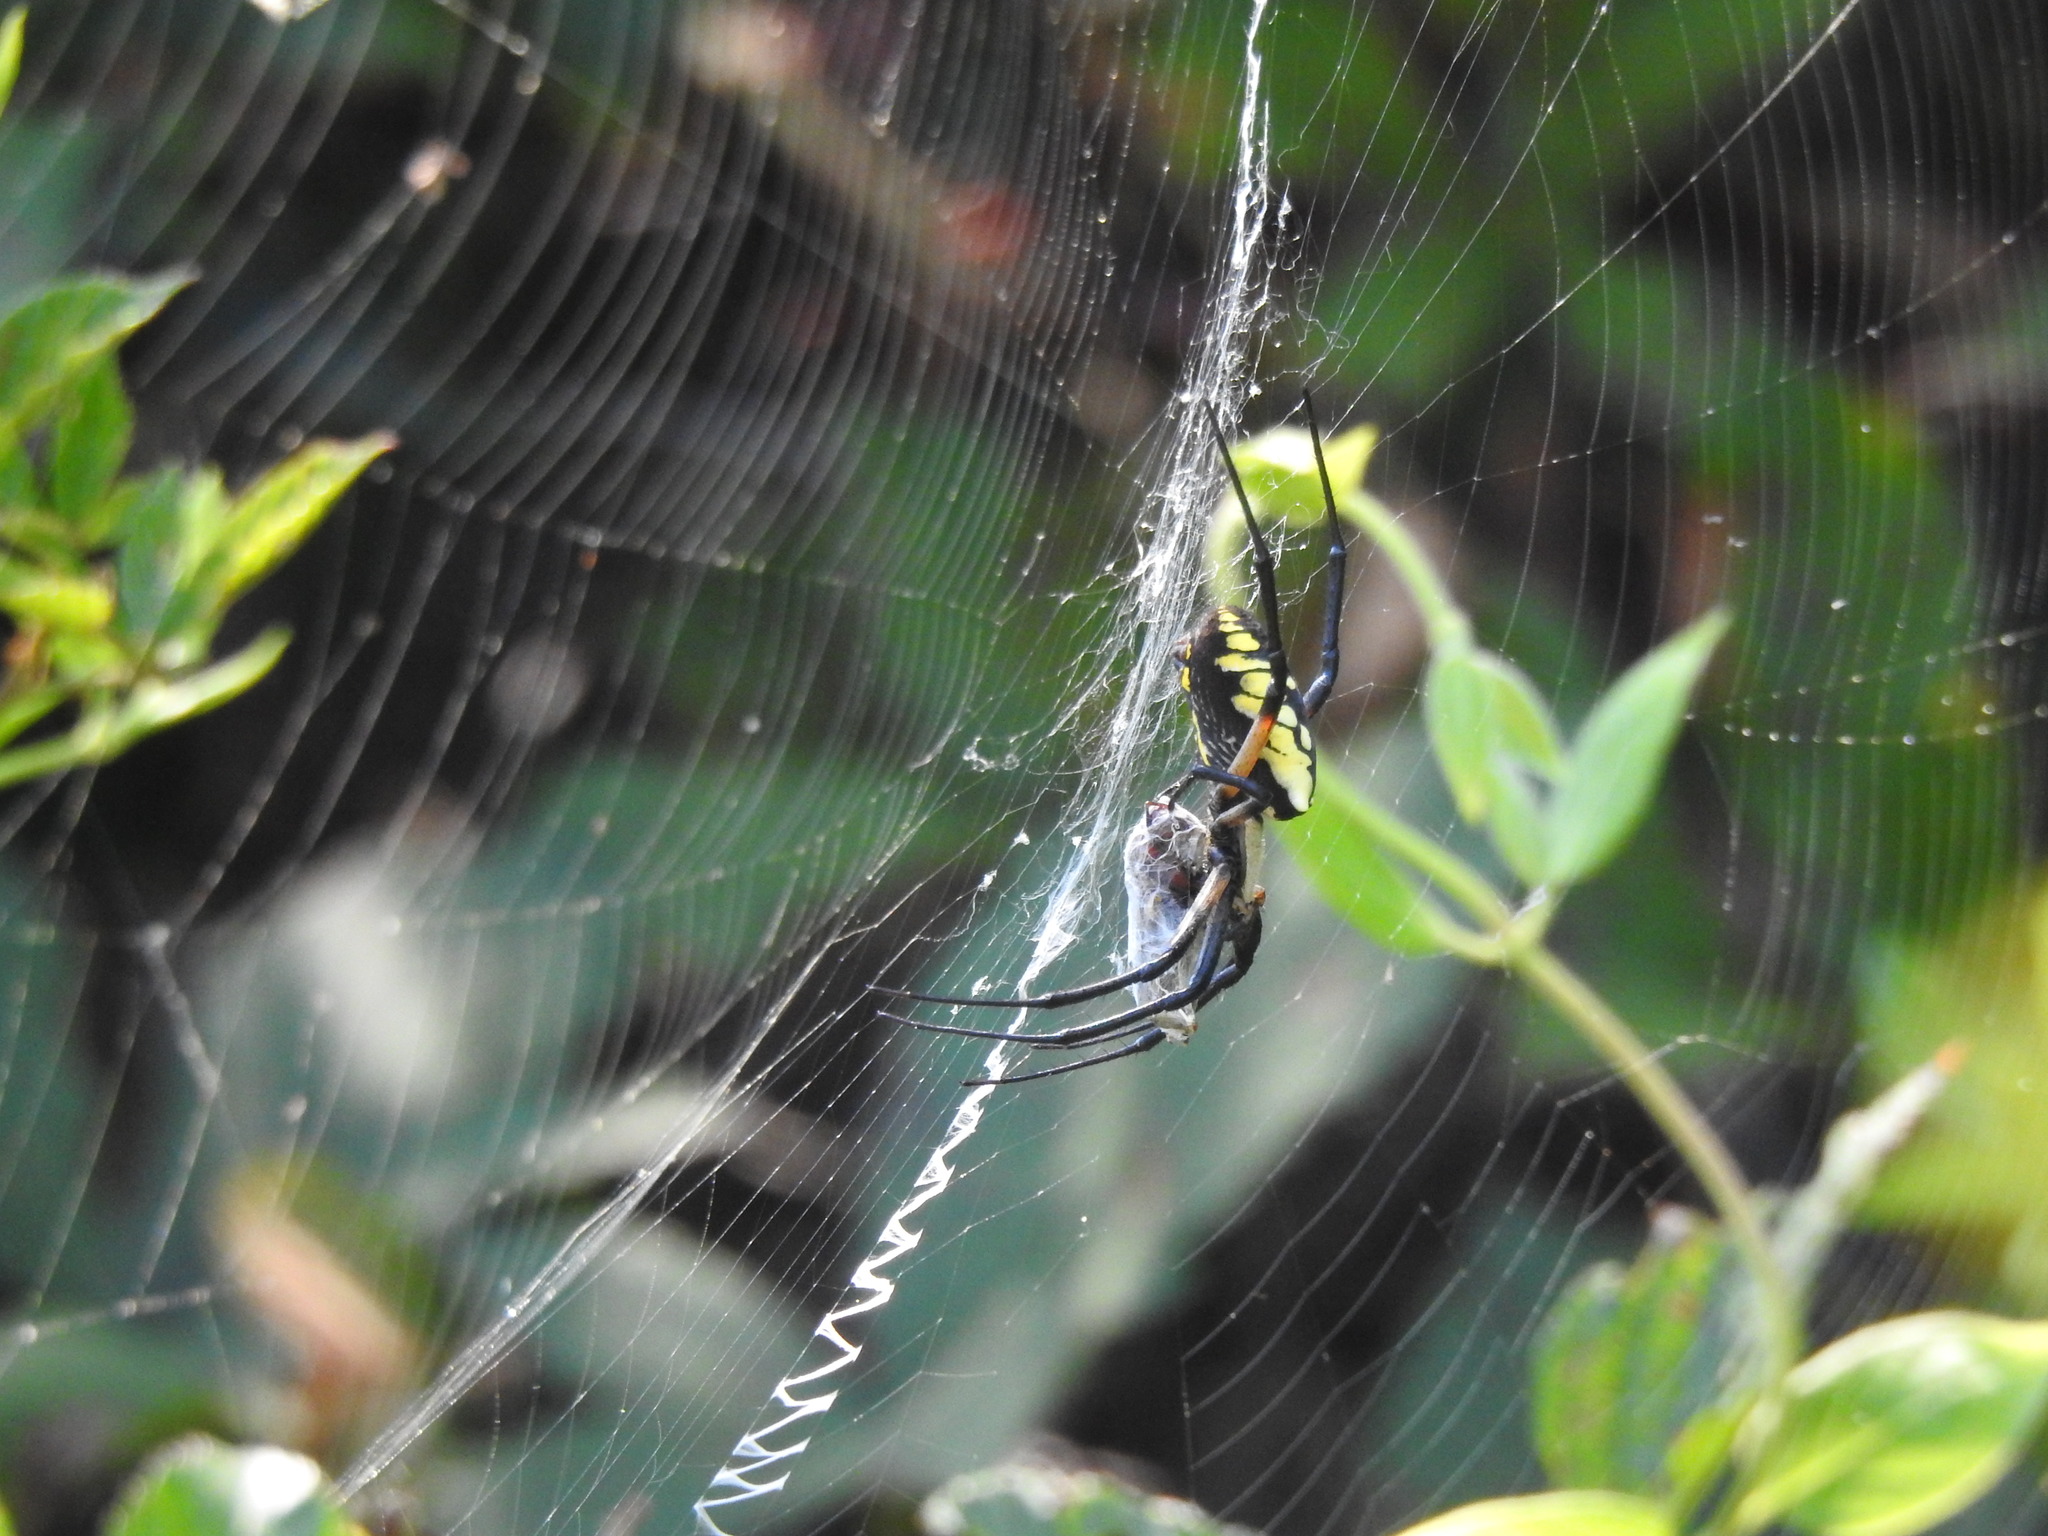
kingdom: Animalia
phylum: Arthropoda
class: Arachnida
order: Araneae
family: Araneidae
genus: Argiope
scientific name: Argiope aurantia
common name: Orb weavers
